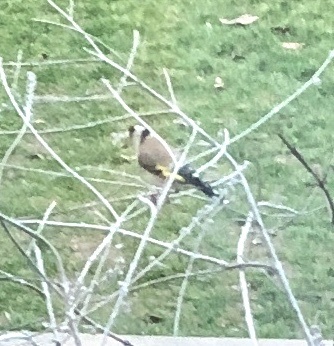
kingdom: Animalia
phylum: Chordata
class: Aves
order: Passeriformes
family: Fringillidae
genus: Carduelis
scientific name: Carduelis carduelis
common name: European goldfinch
